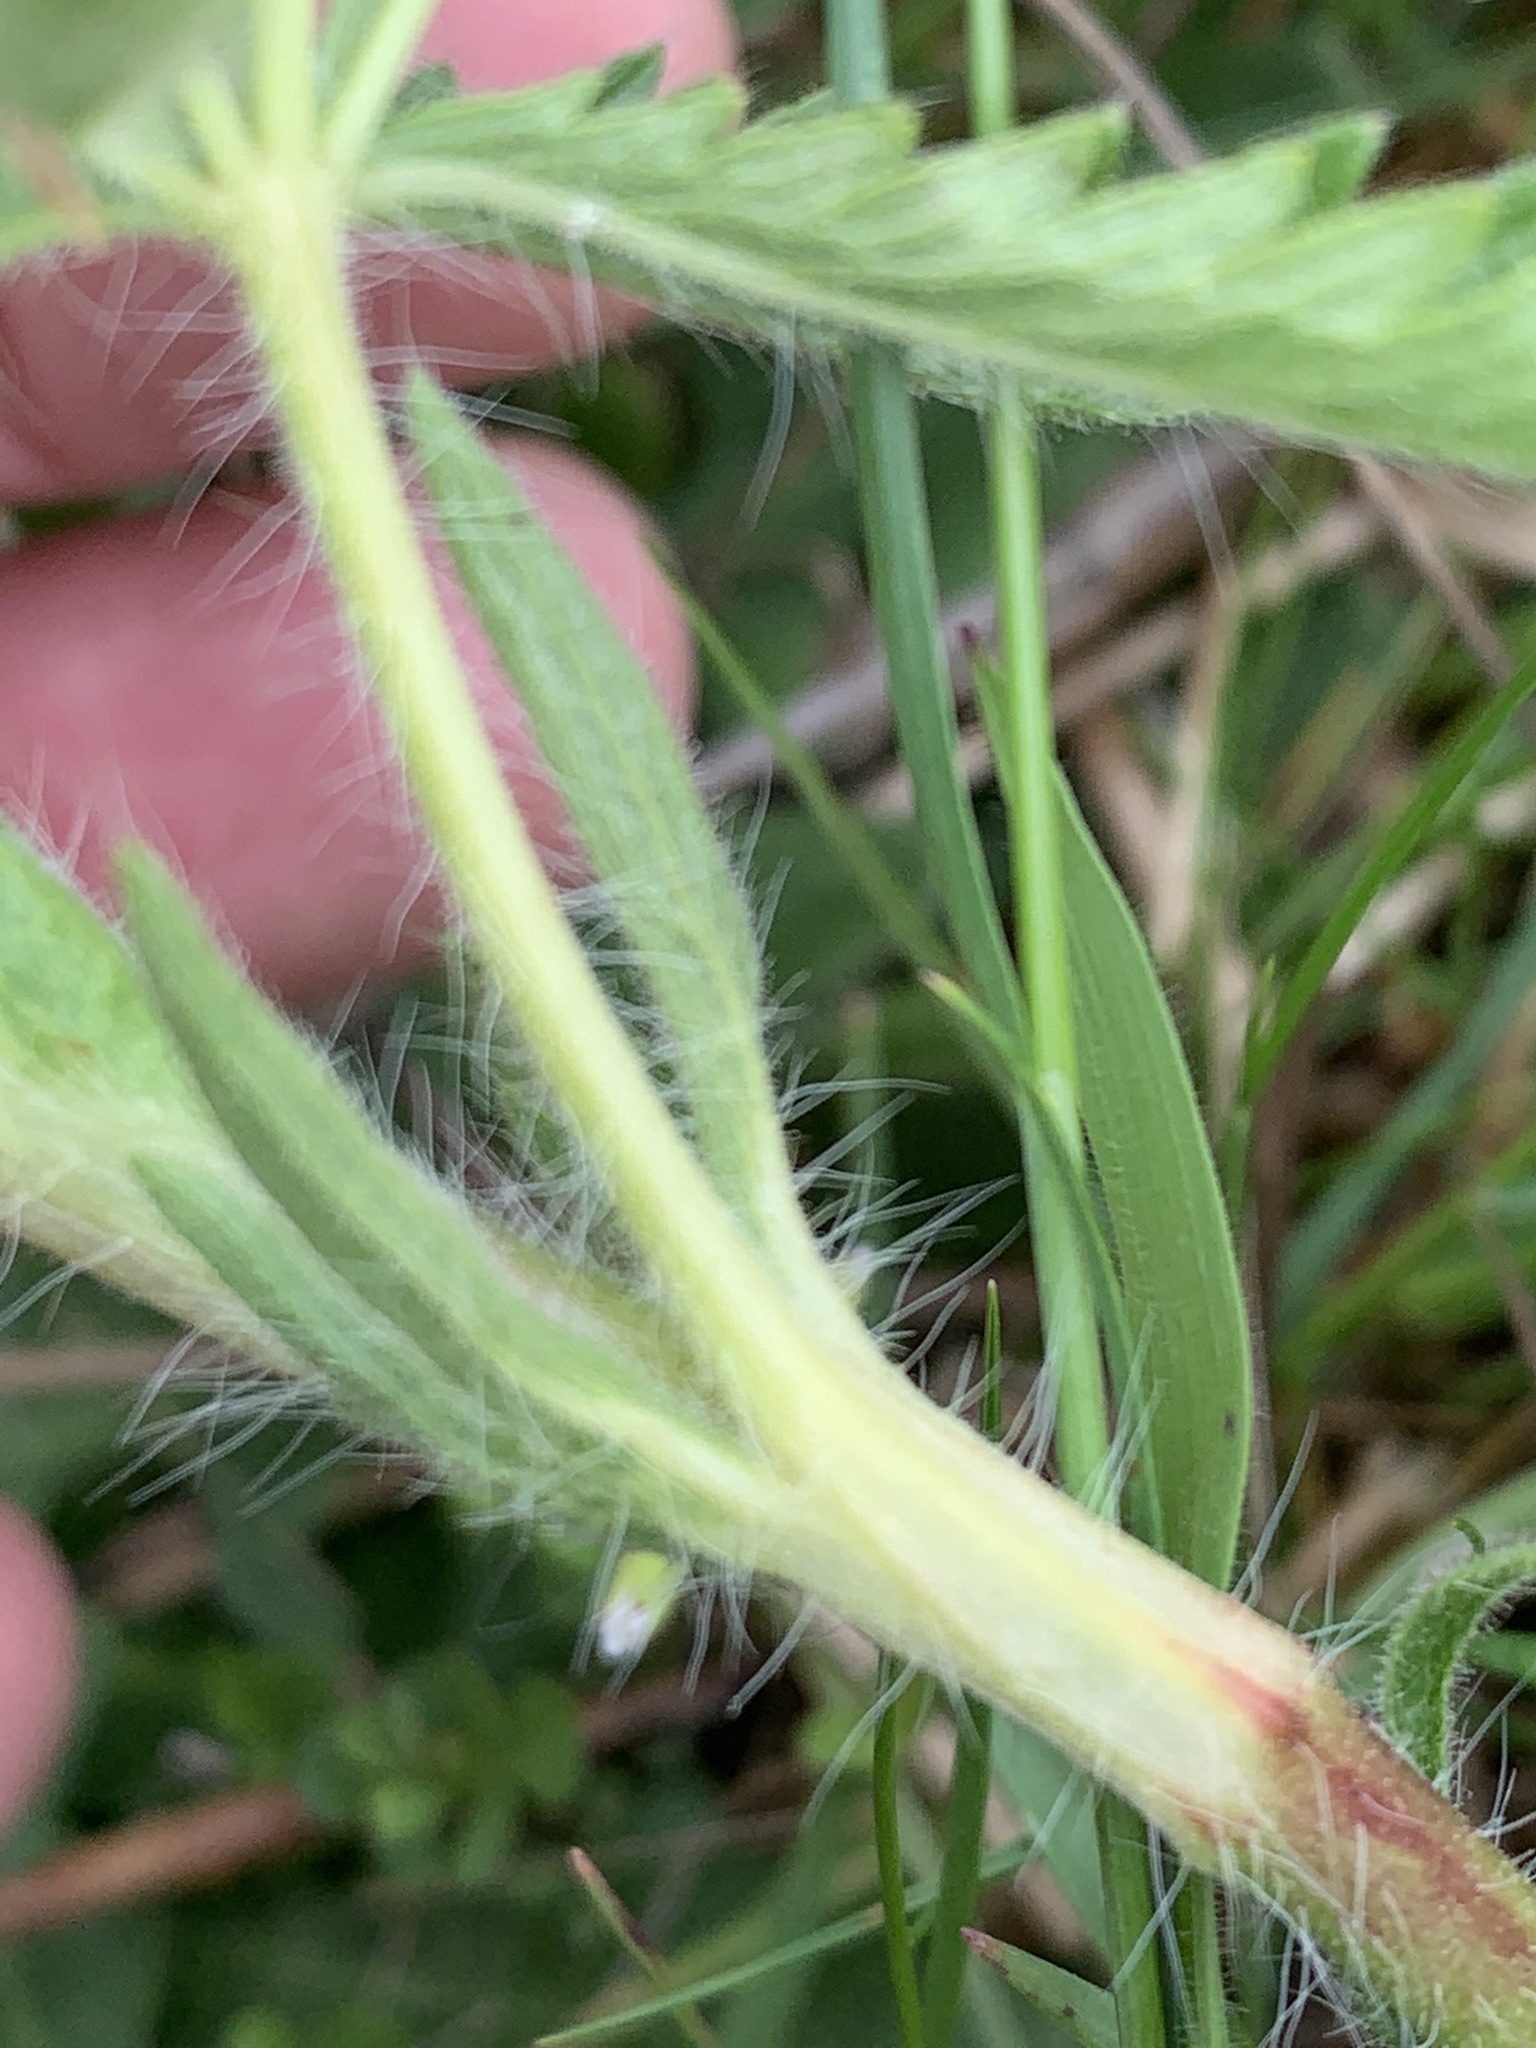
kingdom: Plantae
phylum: Tracheophyta
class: Magnoliopsida
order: Rosales
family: Rosaceae
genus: Potentilla
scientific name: Potentilla recta
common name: Sulphur cinquefoil
